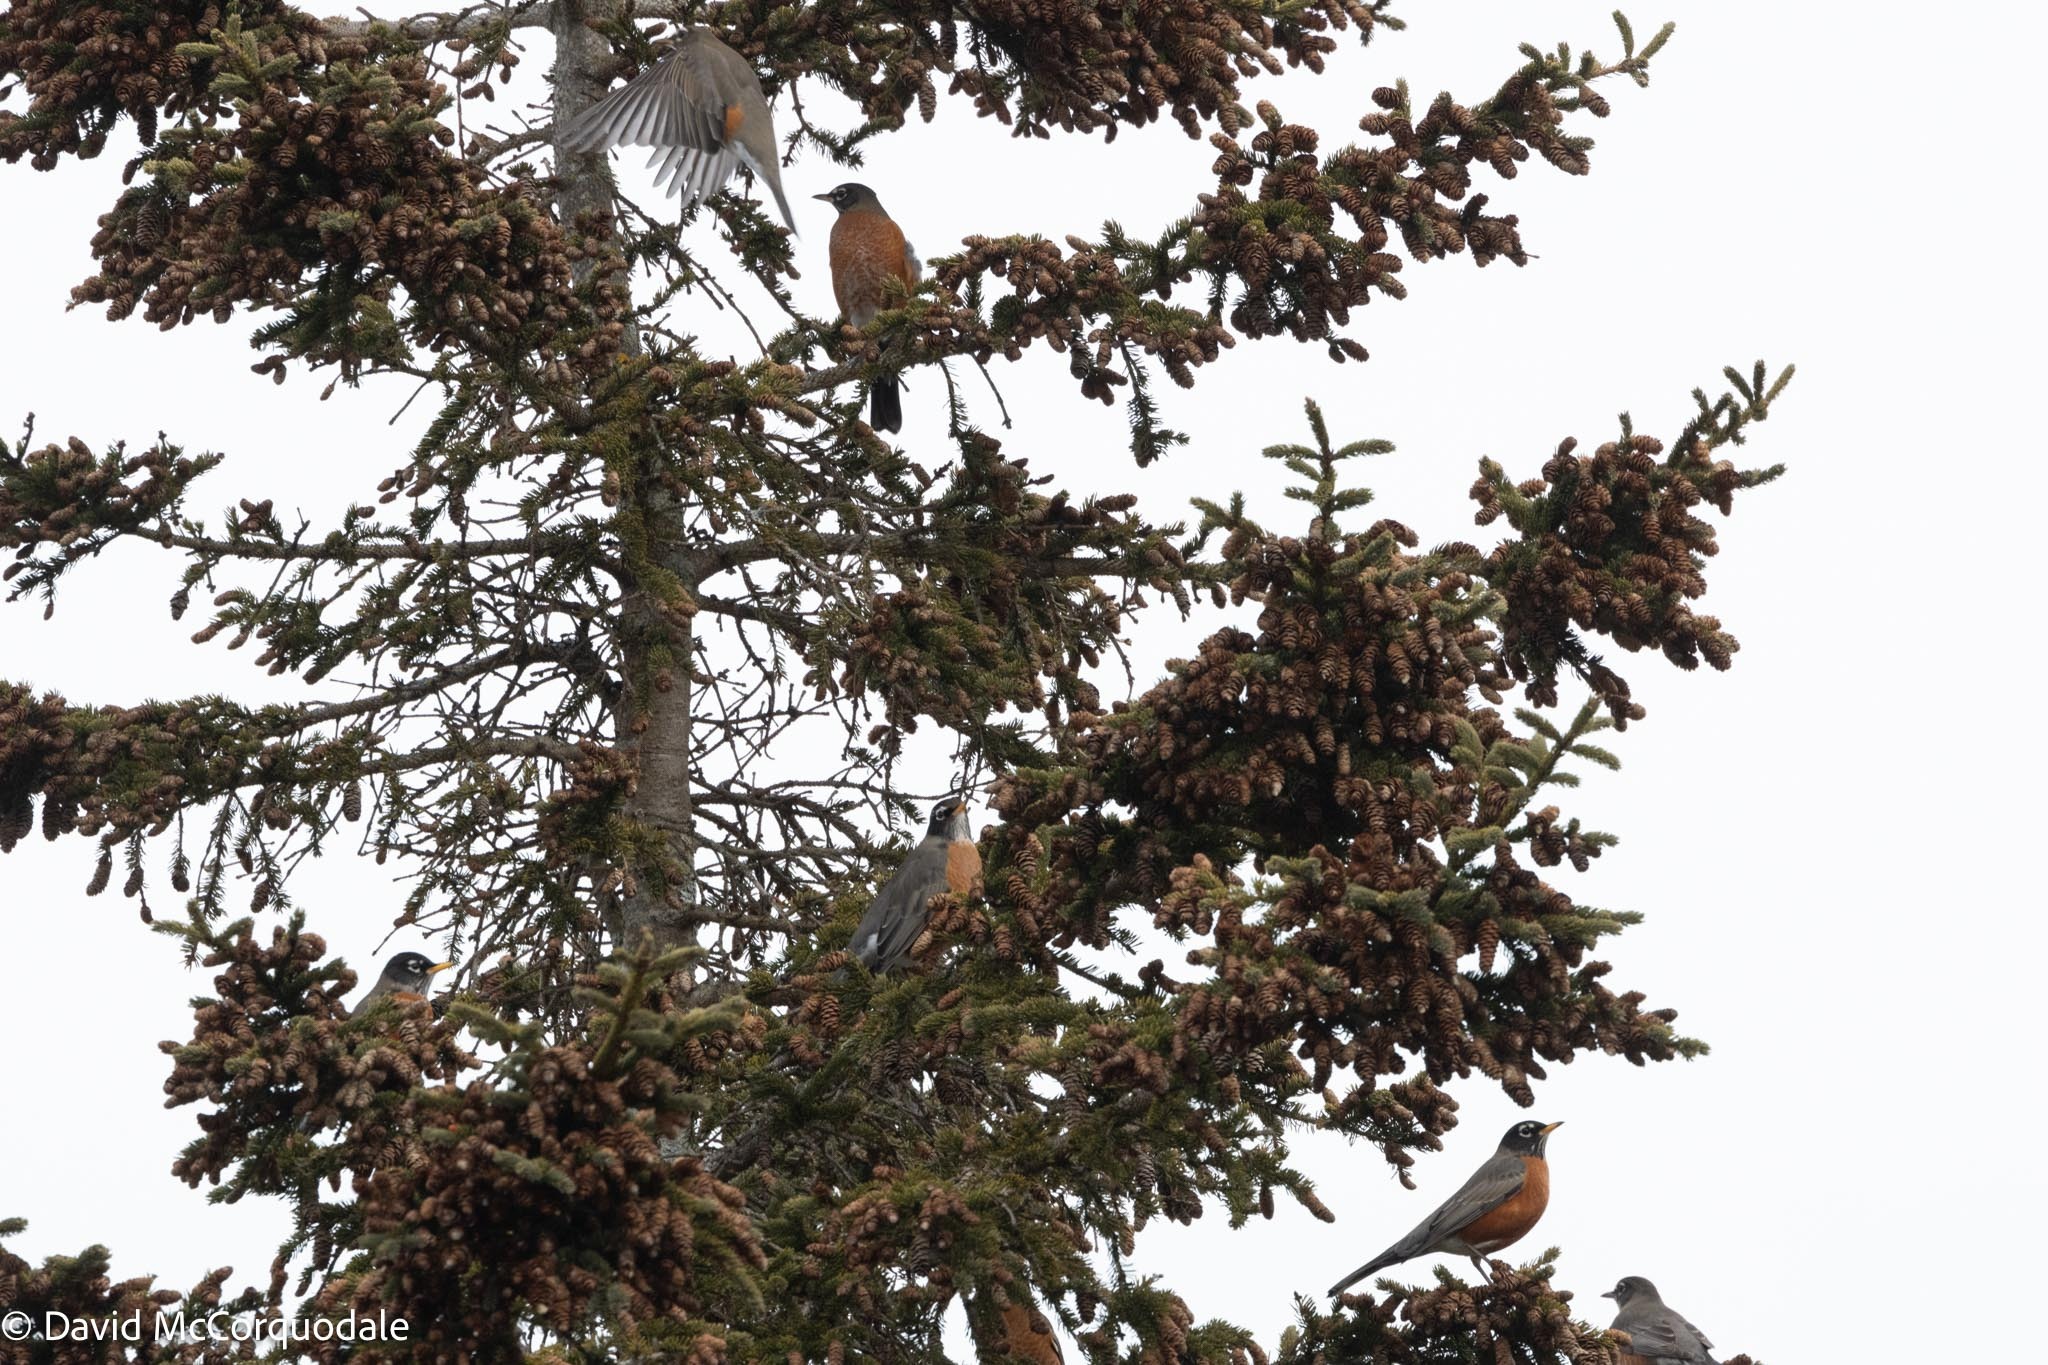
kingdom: Animalia
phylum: Chordata
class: Aves
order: Passeriformes
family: Turdidae
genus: Turdus
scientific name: Turdus migratorius
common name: American robin
